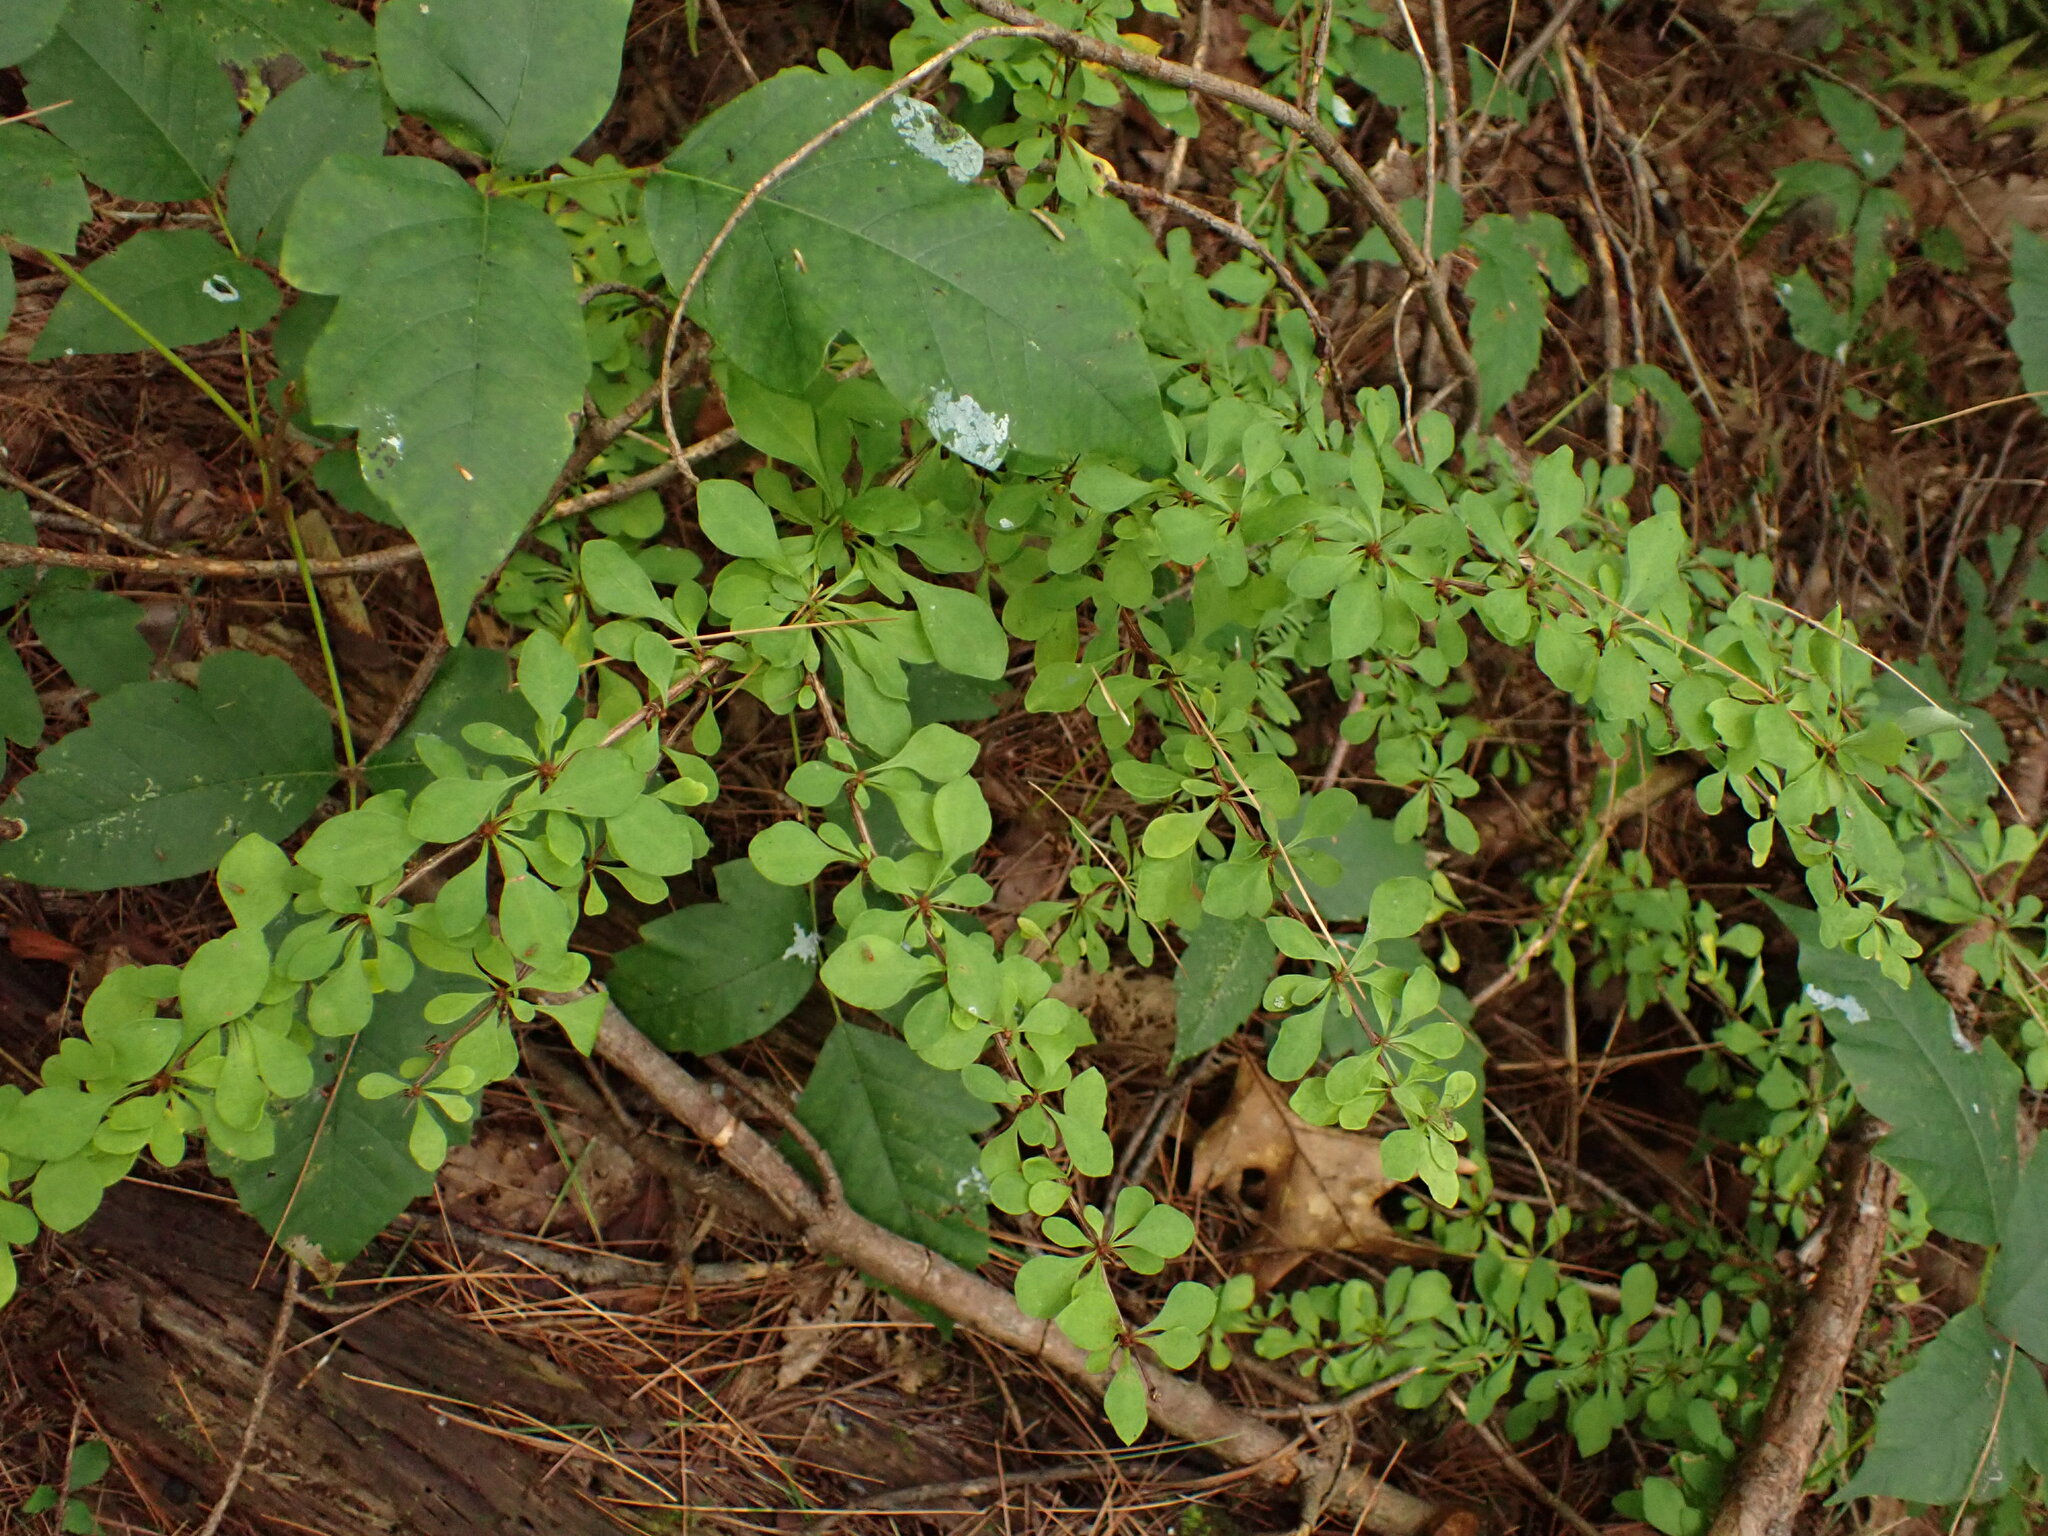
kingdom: Plantae
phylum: Tracheophyta
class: Magnoliopsida
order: Ranunculales
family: Berberidaceae
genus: Berberis
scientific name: Berberis thunbergii
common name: Japanese barberry
